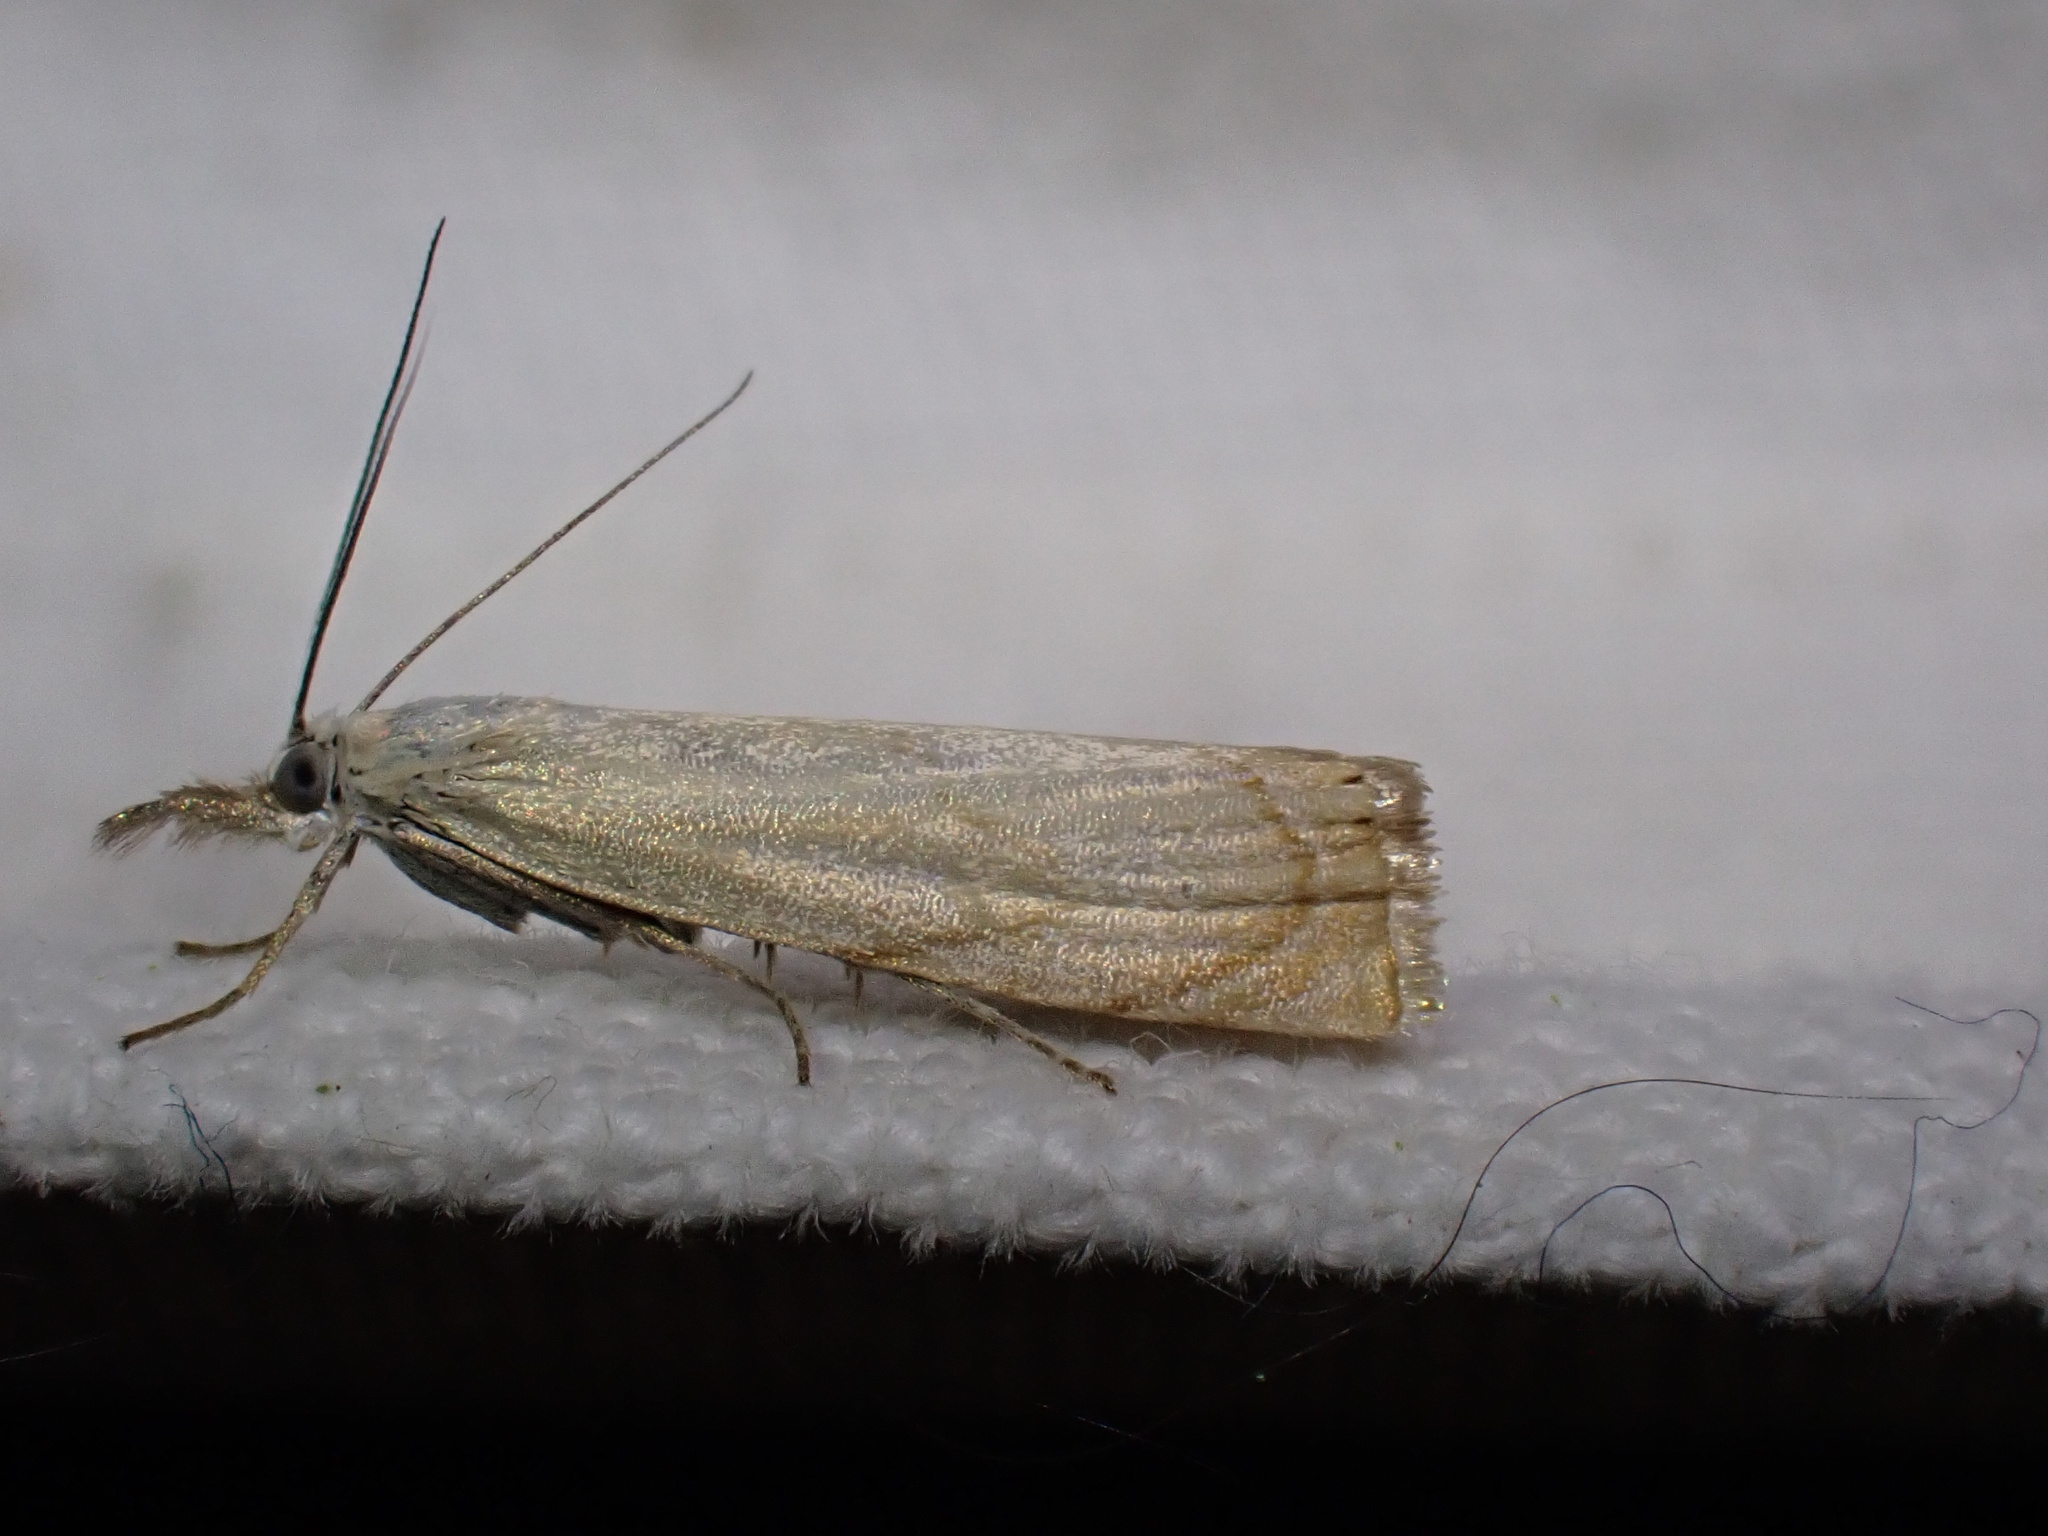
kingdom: Animalia
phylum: Arthropoda
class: Insecta
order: Lepidoptera
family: Crambidae
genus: Chrysoteuchia
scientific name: Chrysoteuchia culmella
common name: Garden grass-veneer
